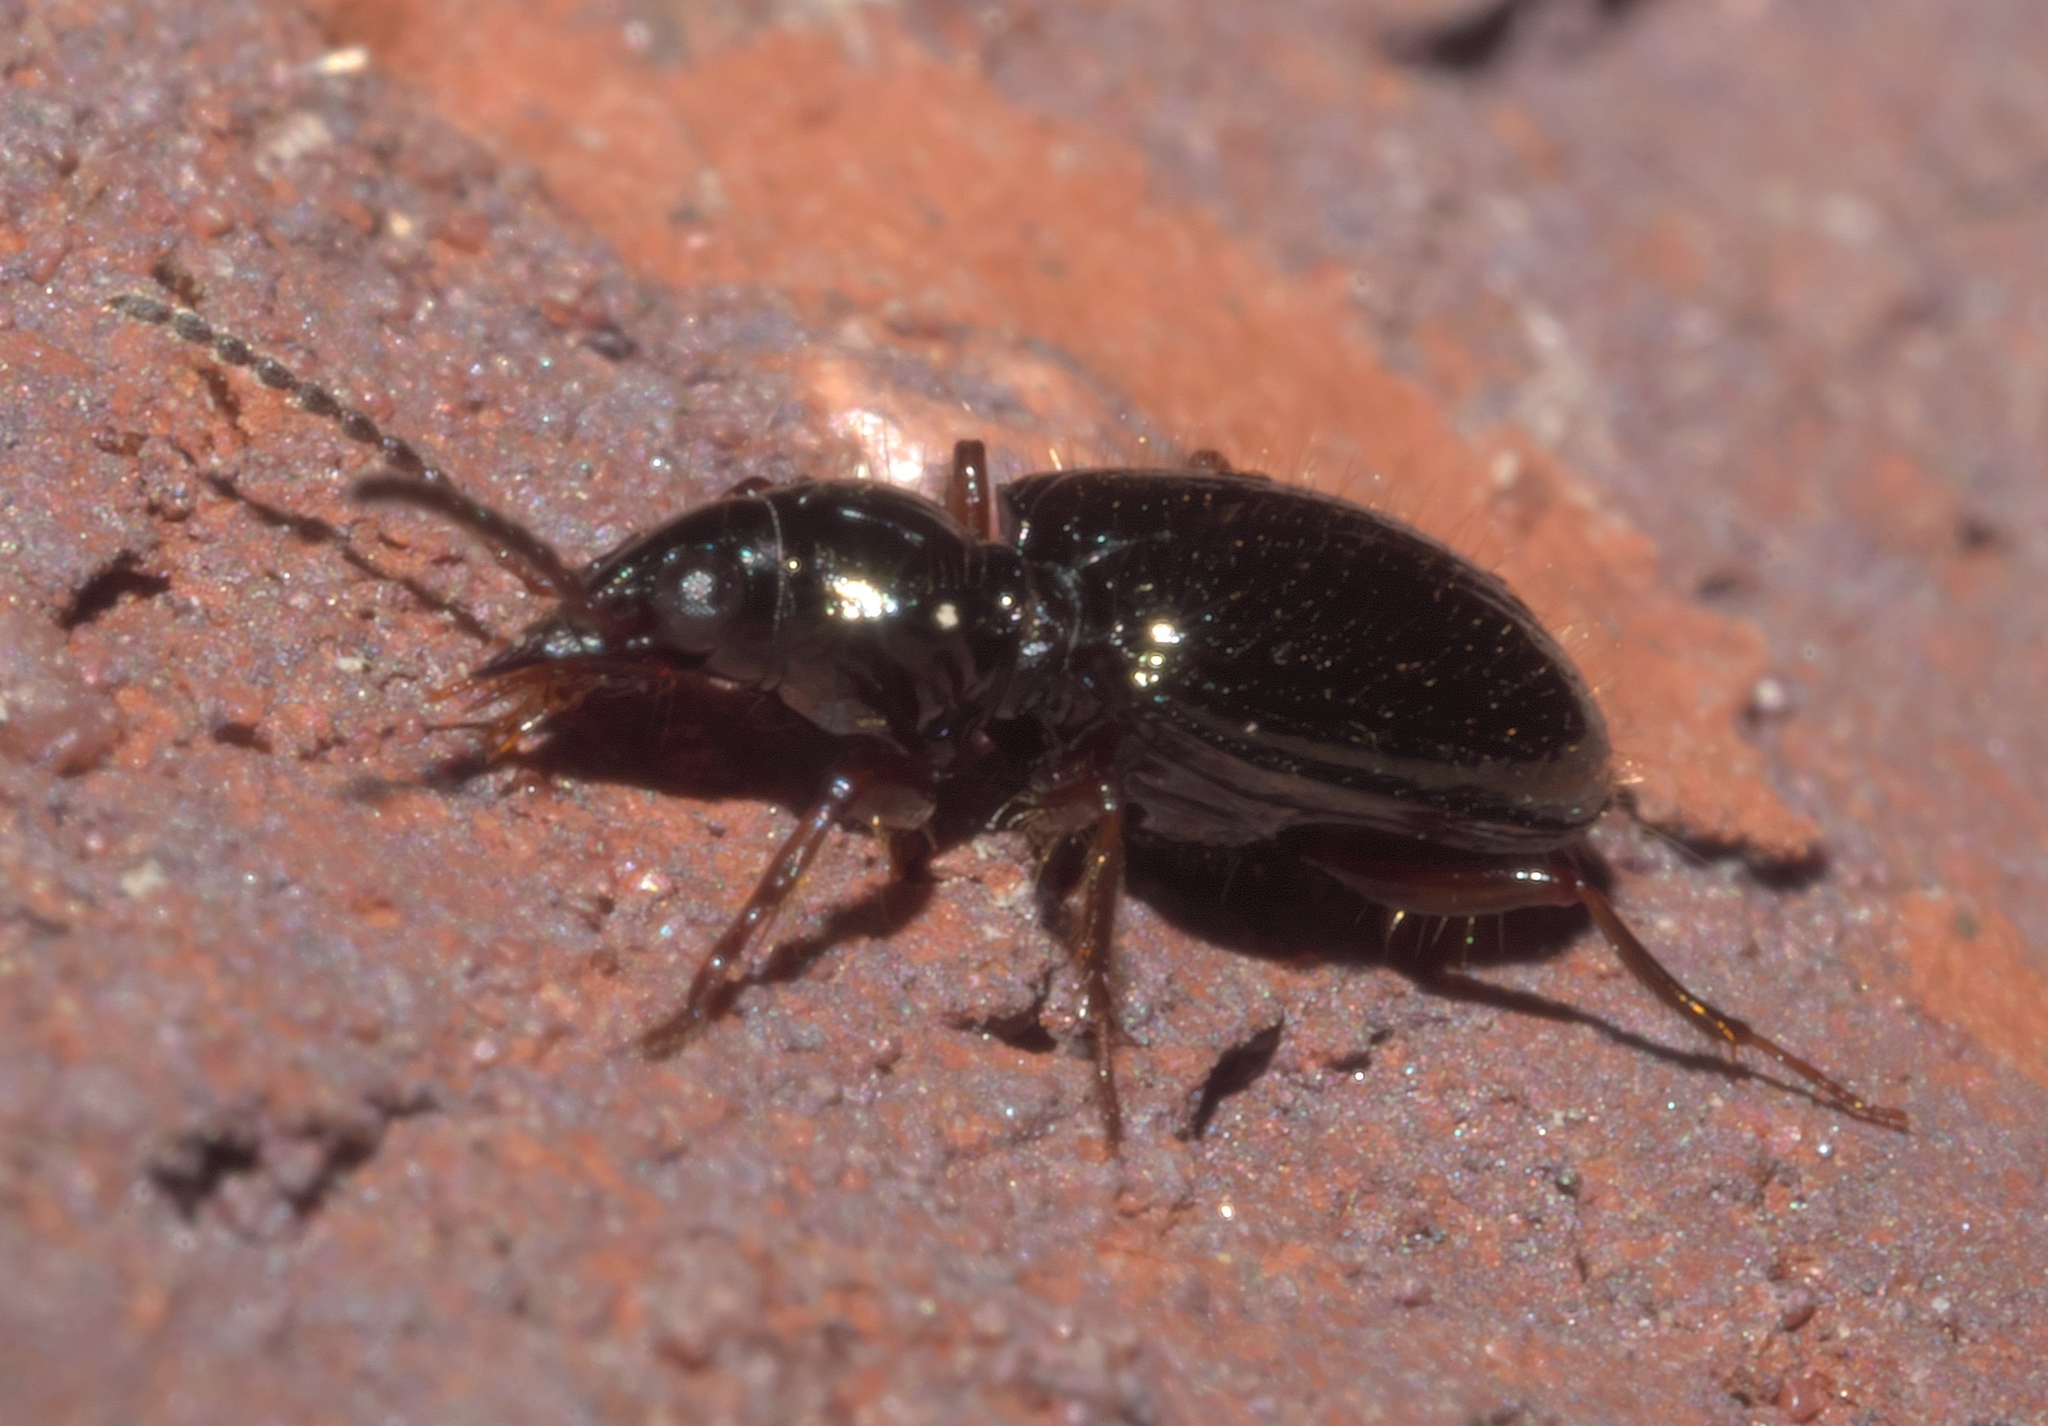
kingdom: Animalia
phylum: Arthropoda
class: Insecta
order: Coleoptera
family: Carabidae
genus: Semiardistomis
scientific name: Semiardistomis viridis
